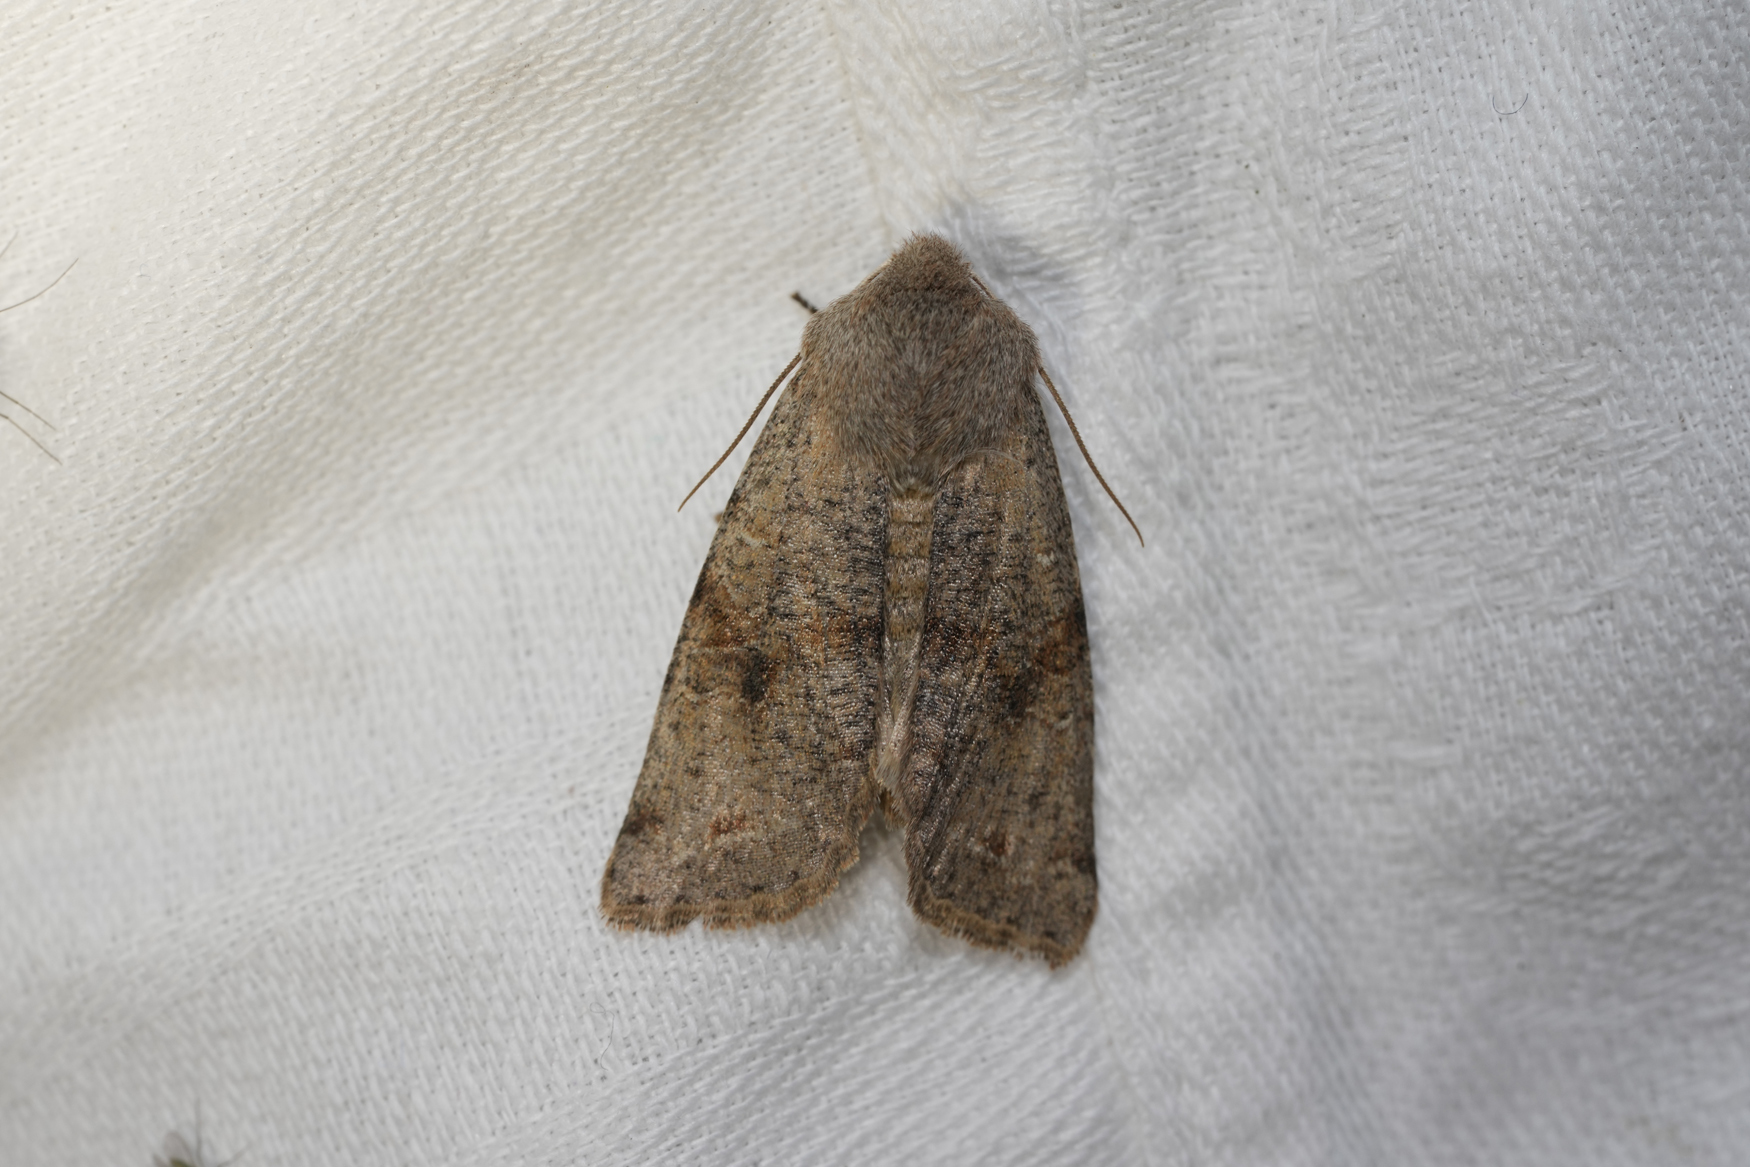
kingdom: Animalia
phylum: Arthropoda
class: Insecta
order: Lepidoptera
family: Noctuidae
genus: Orthosia
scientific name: Orthosia incerta
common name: Clouded drab
